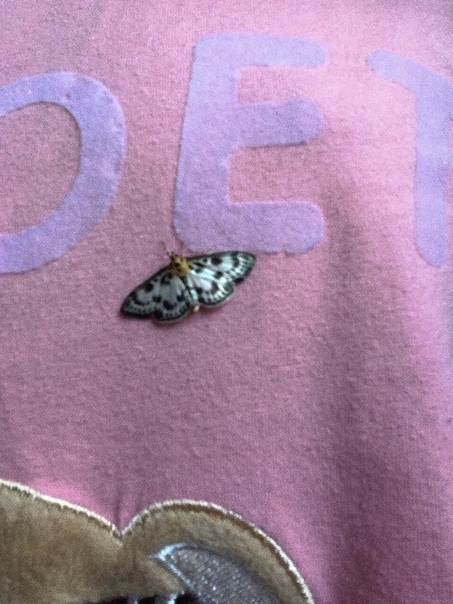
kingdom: Animalia
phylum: Arthropoda
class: Insecta
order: Lepidoptera
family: Crambidae
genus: Anania
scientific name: Anania hortulata
